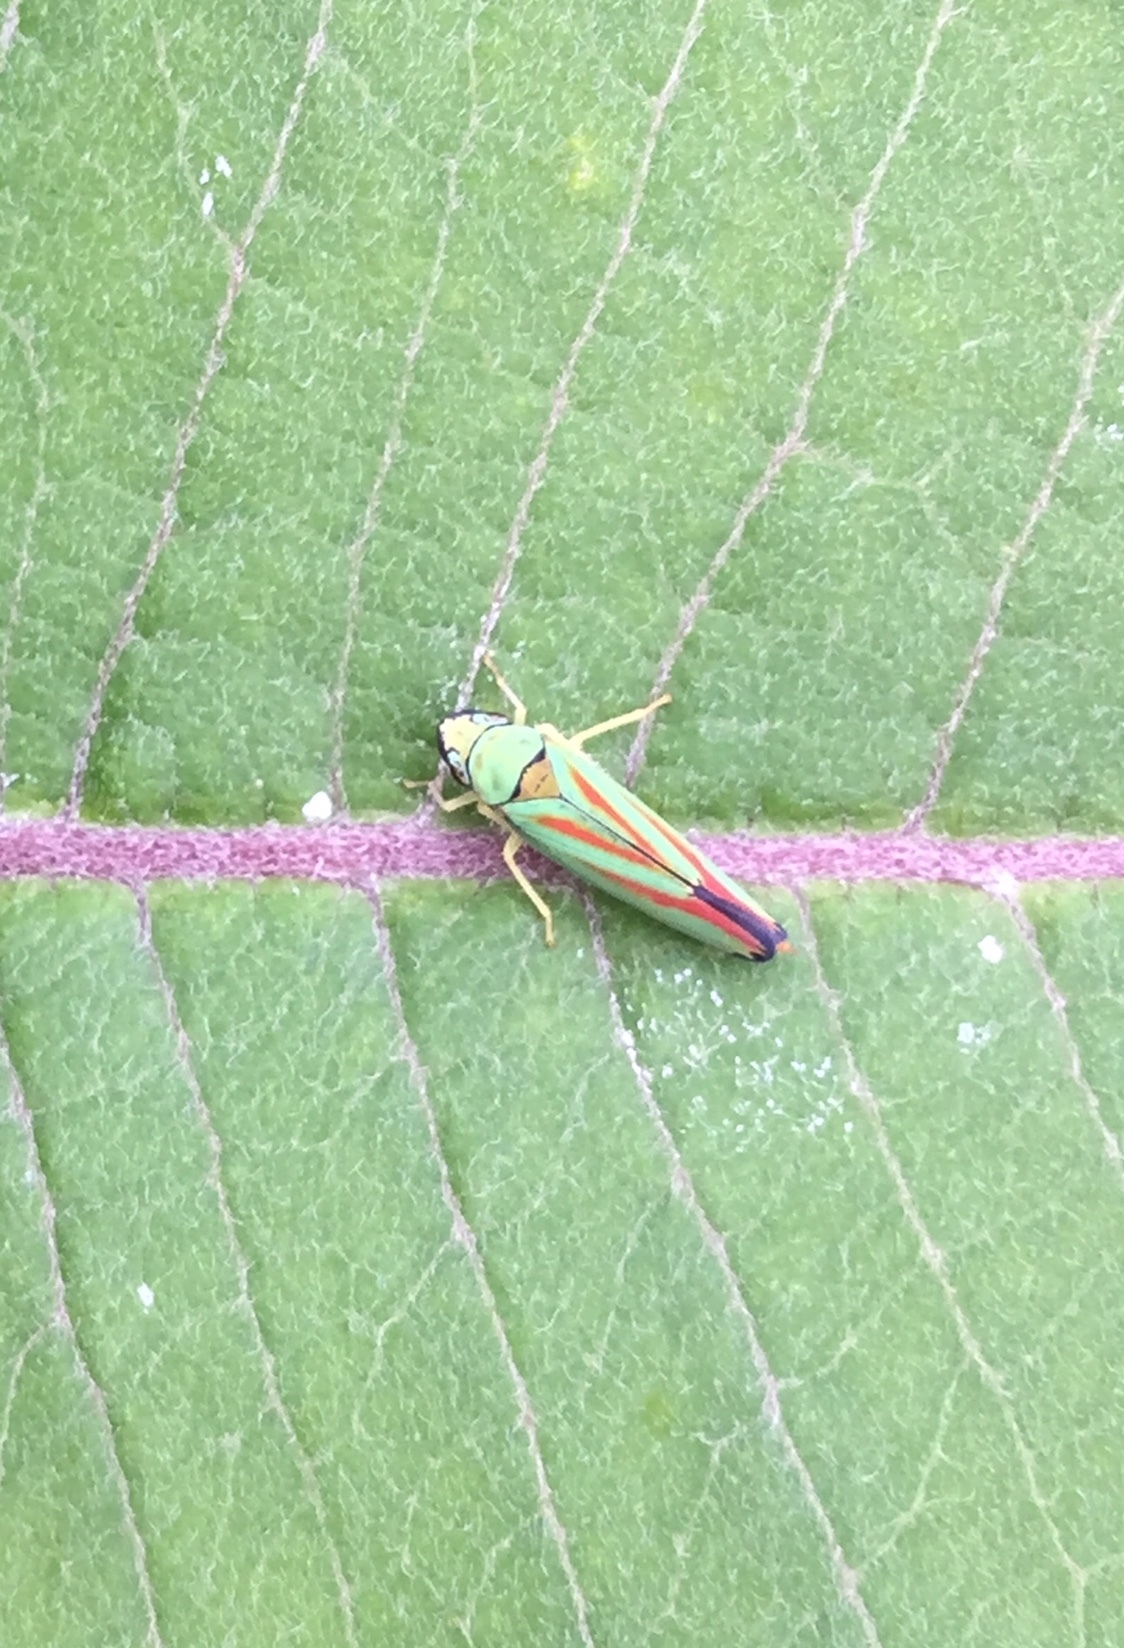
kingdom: Animalia
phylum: Arthropoda
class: Insecta
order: Hemiptera
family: Cicadellidae
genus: Graphocephala
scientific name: Graphocephala fennahi
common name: Rhododendron leafhopper
